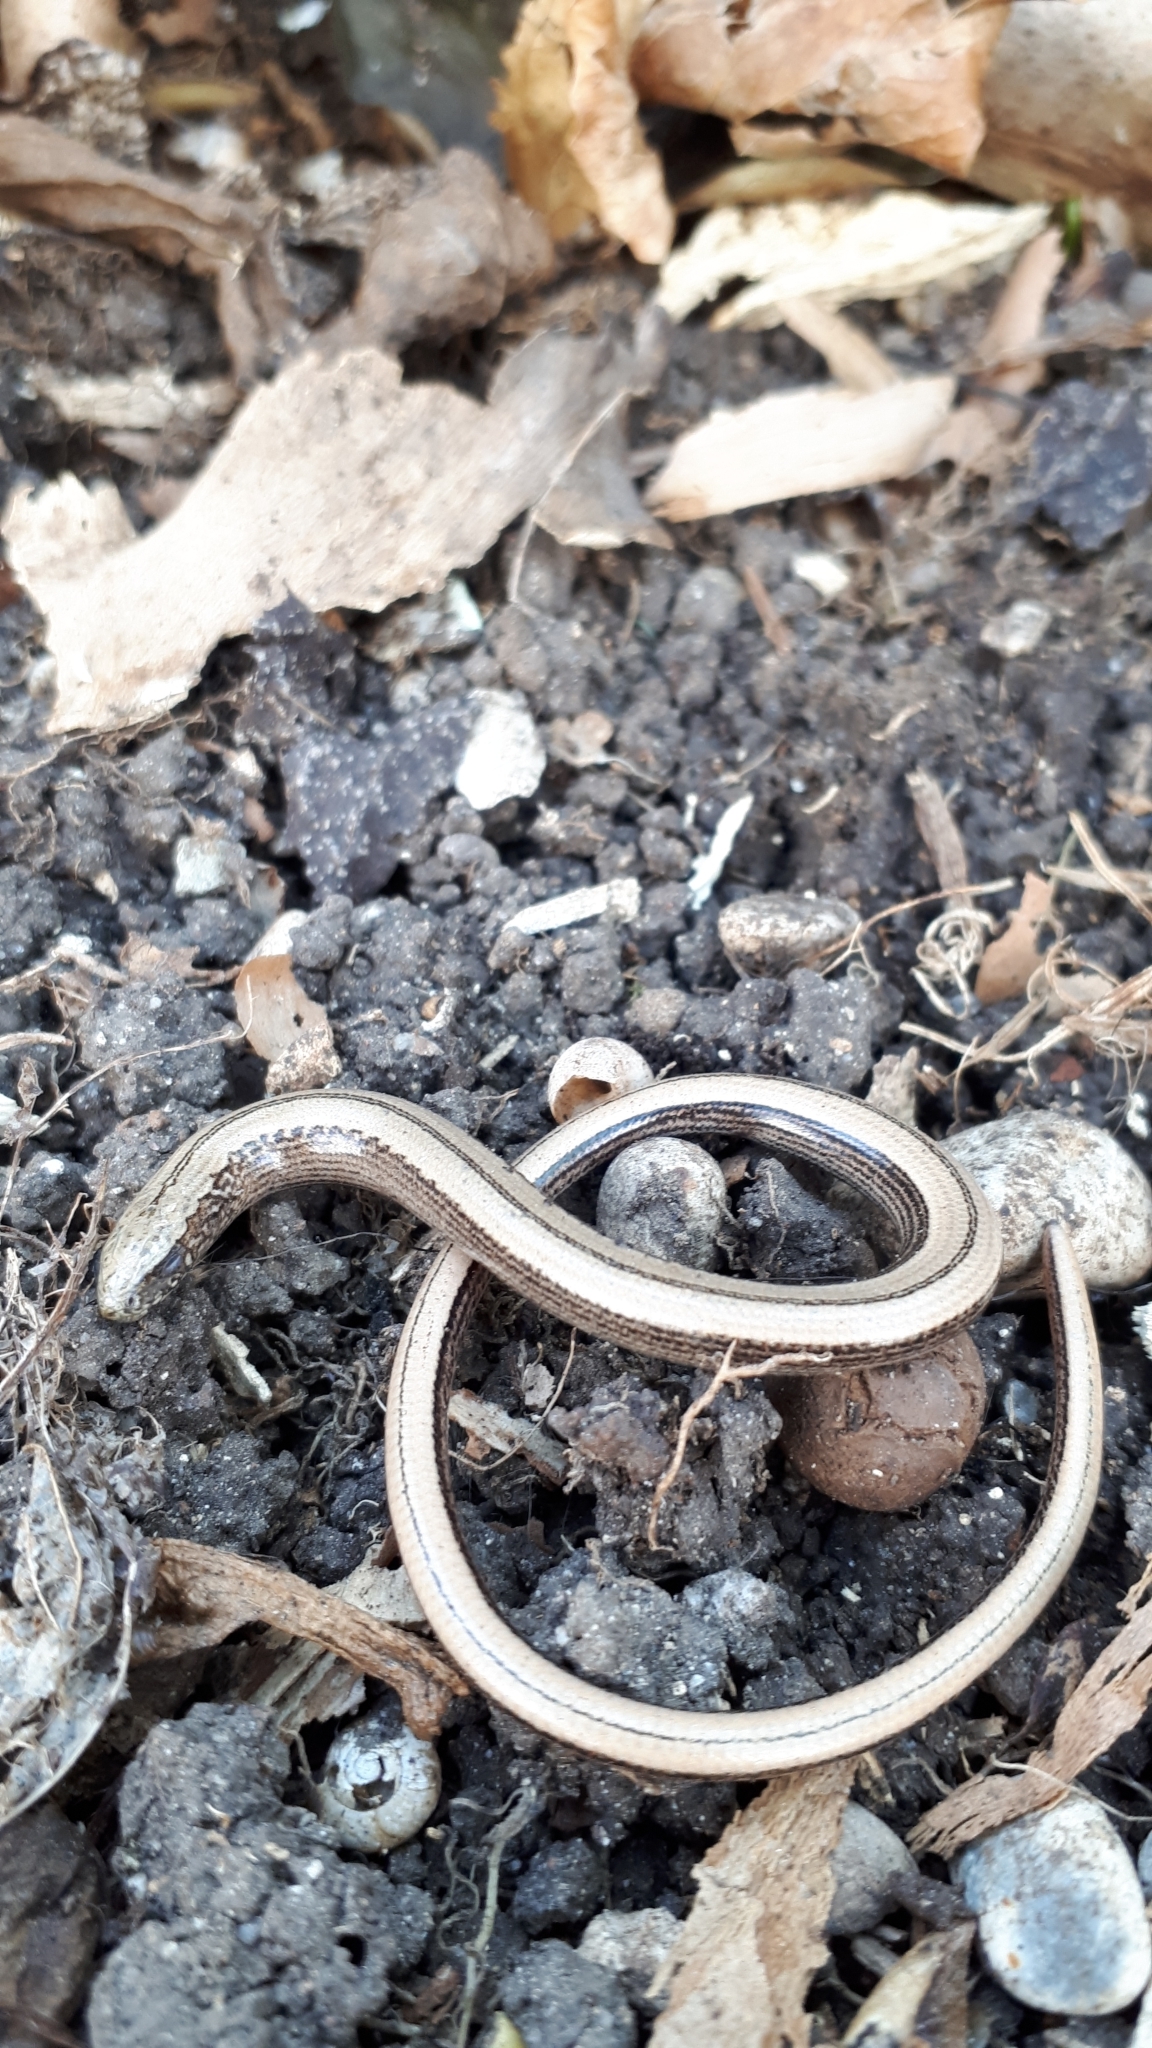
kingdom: Animalia
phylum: Chordata
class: Squamata
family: Anguidae
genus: Anguis
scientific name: Anguis veronensis
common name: Italian slow worm
